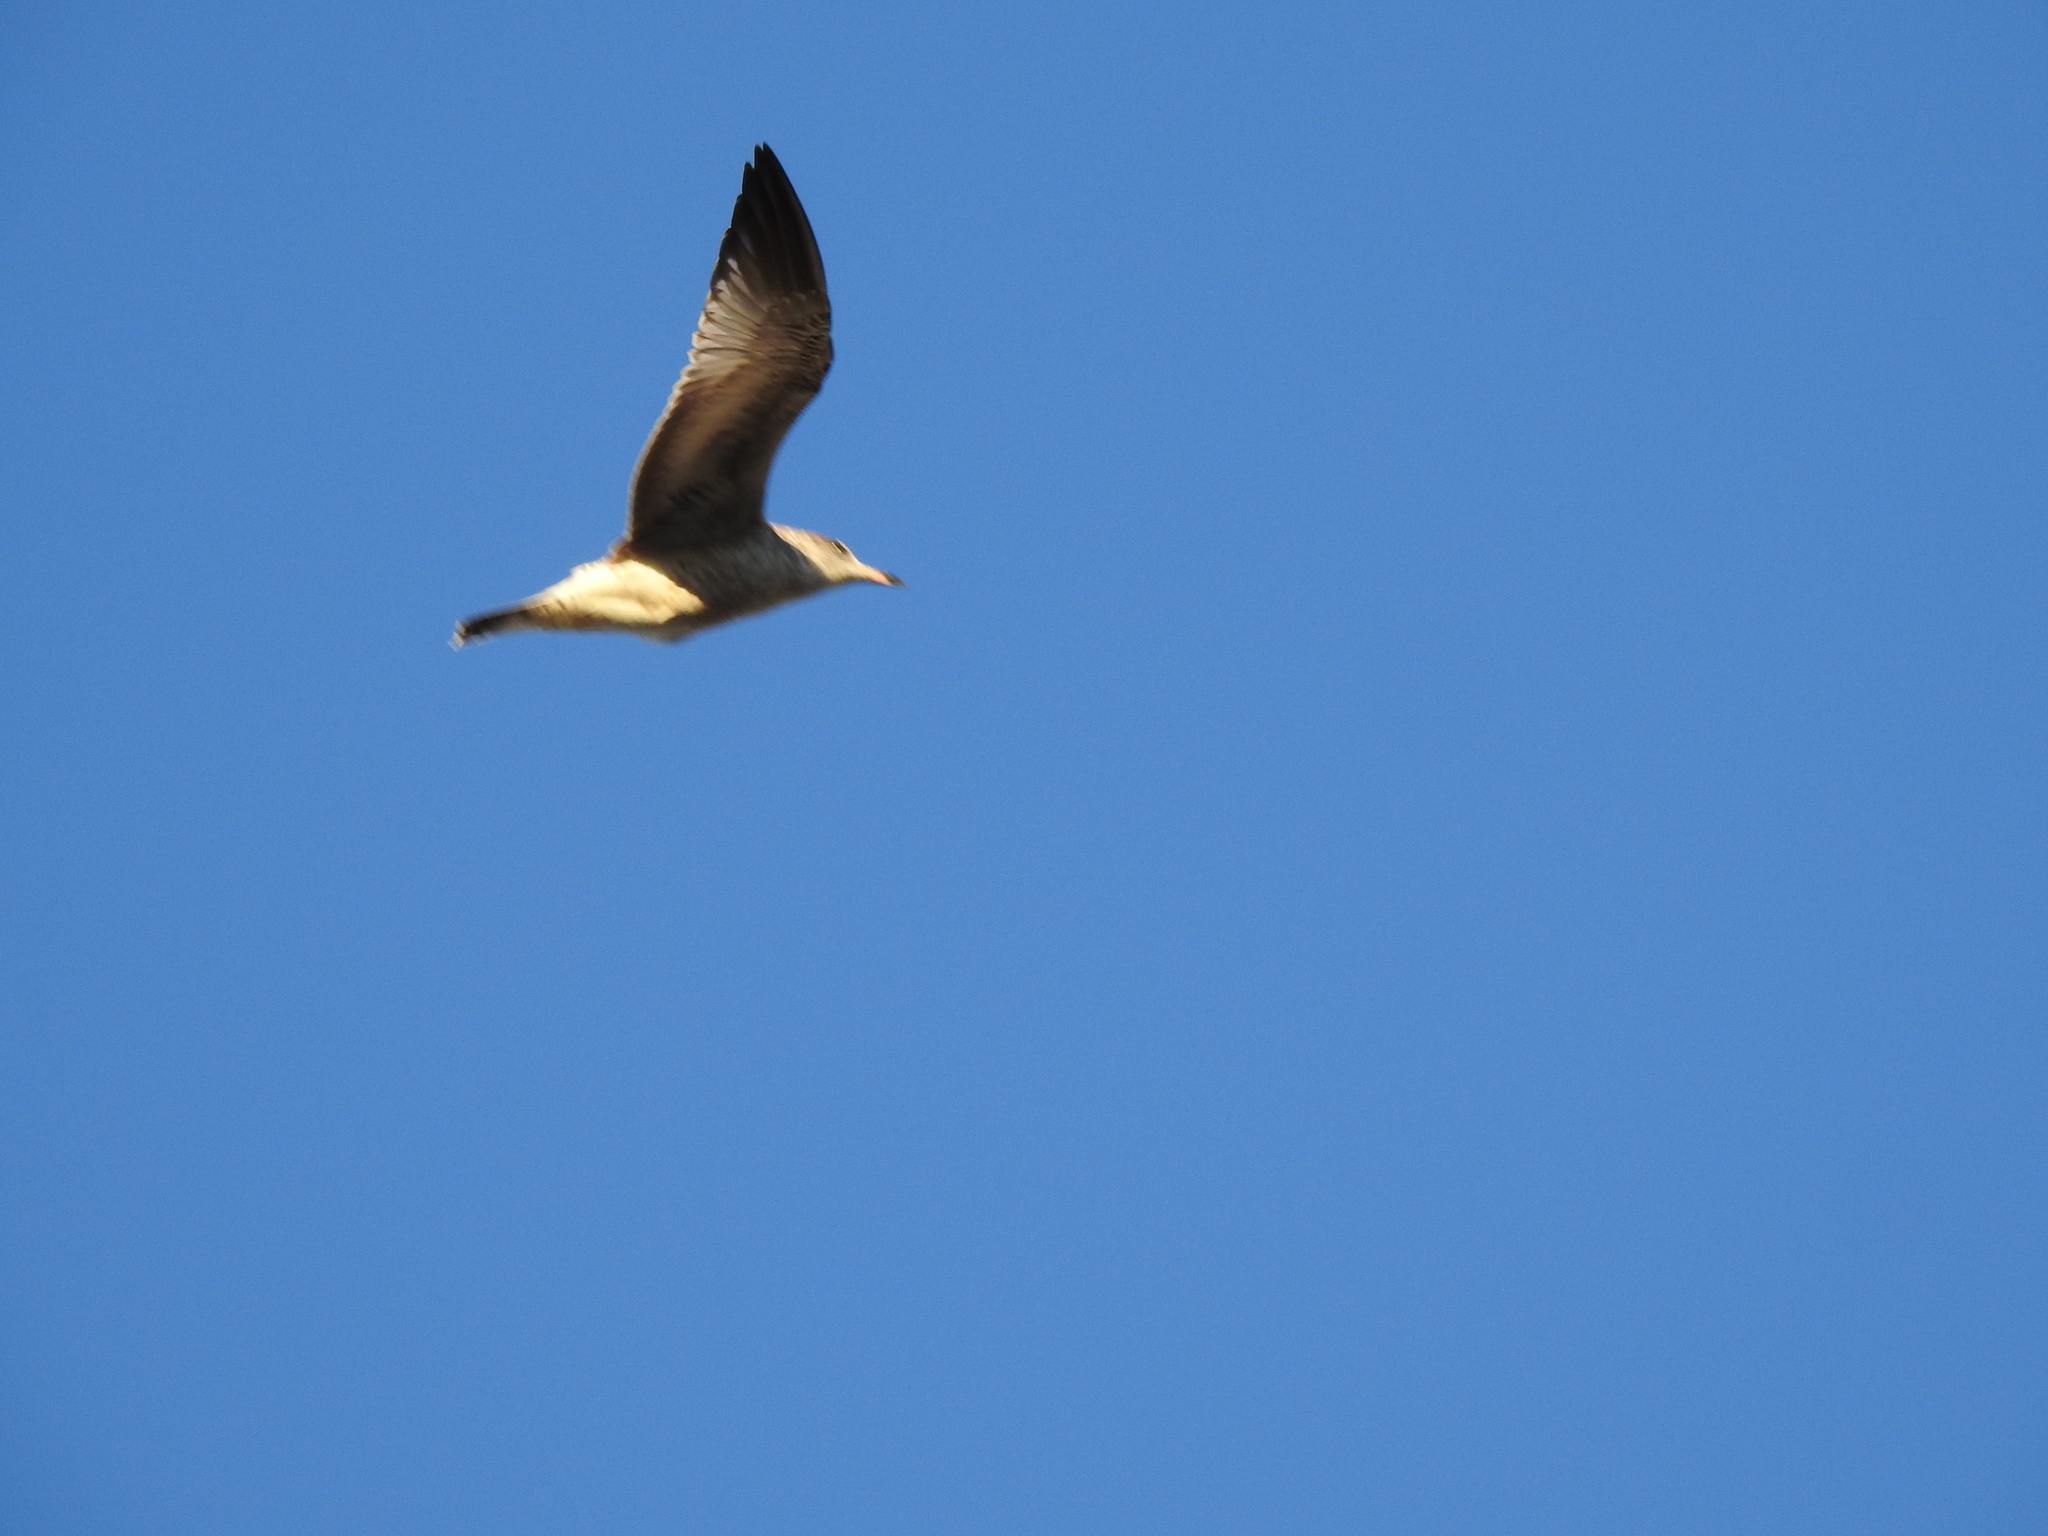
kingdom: Animalia
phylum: Chordata
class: Aves
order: Charadriiformes
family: Laridae
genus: Larus
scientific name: Larus delawarensis
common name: Ring-billed gull
